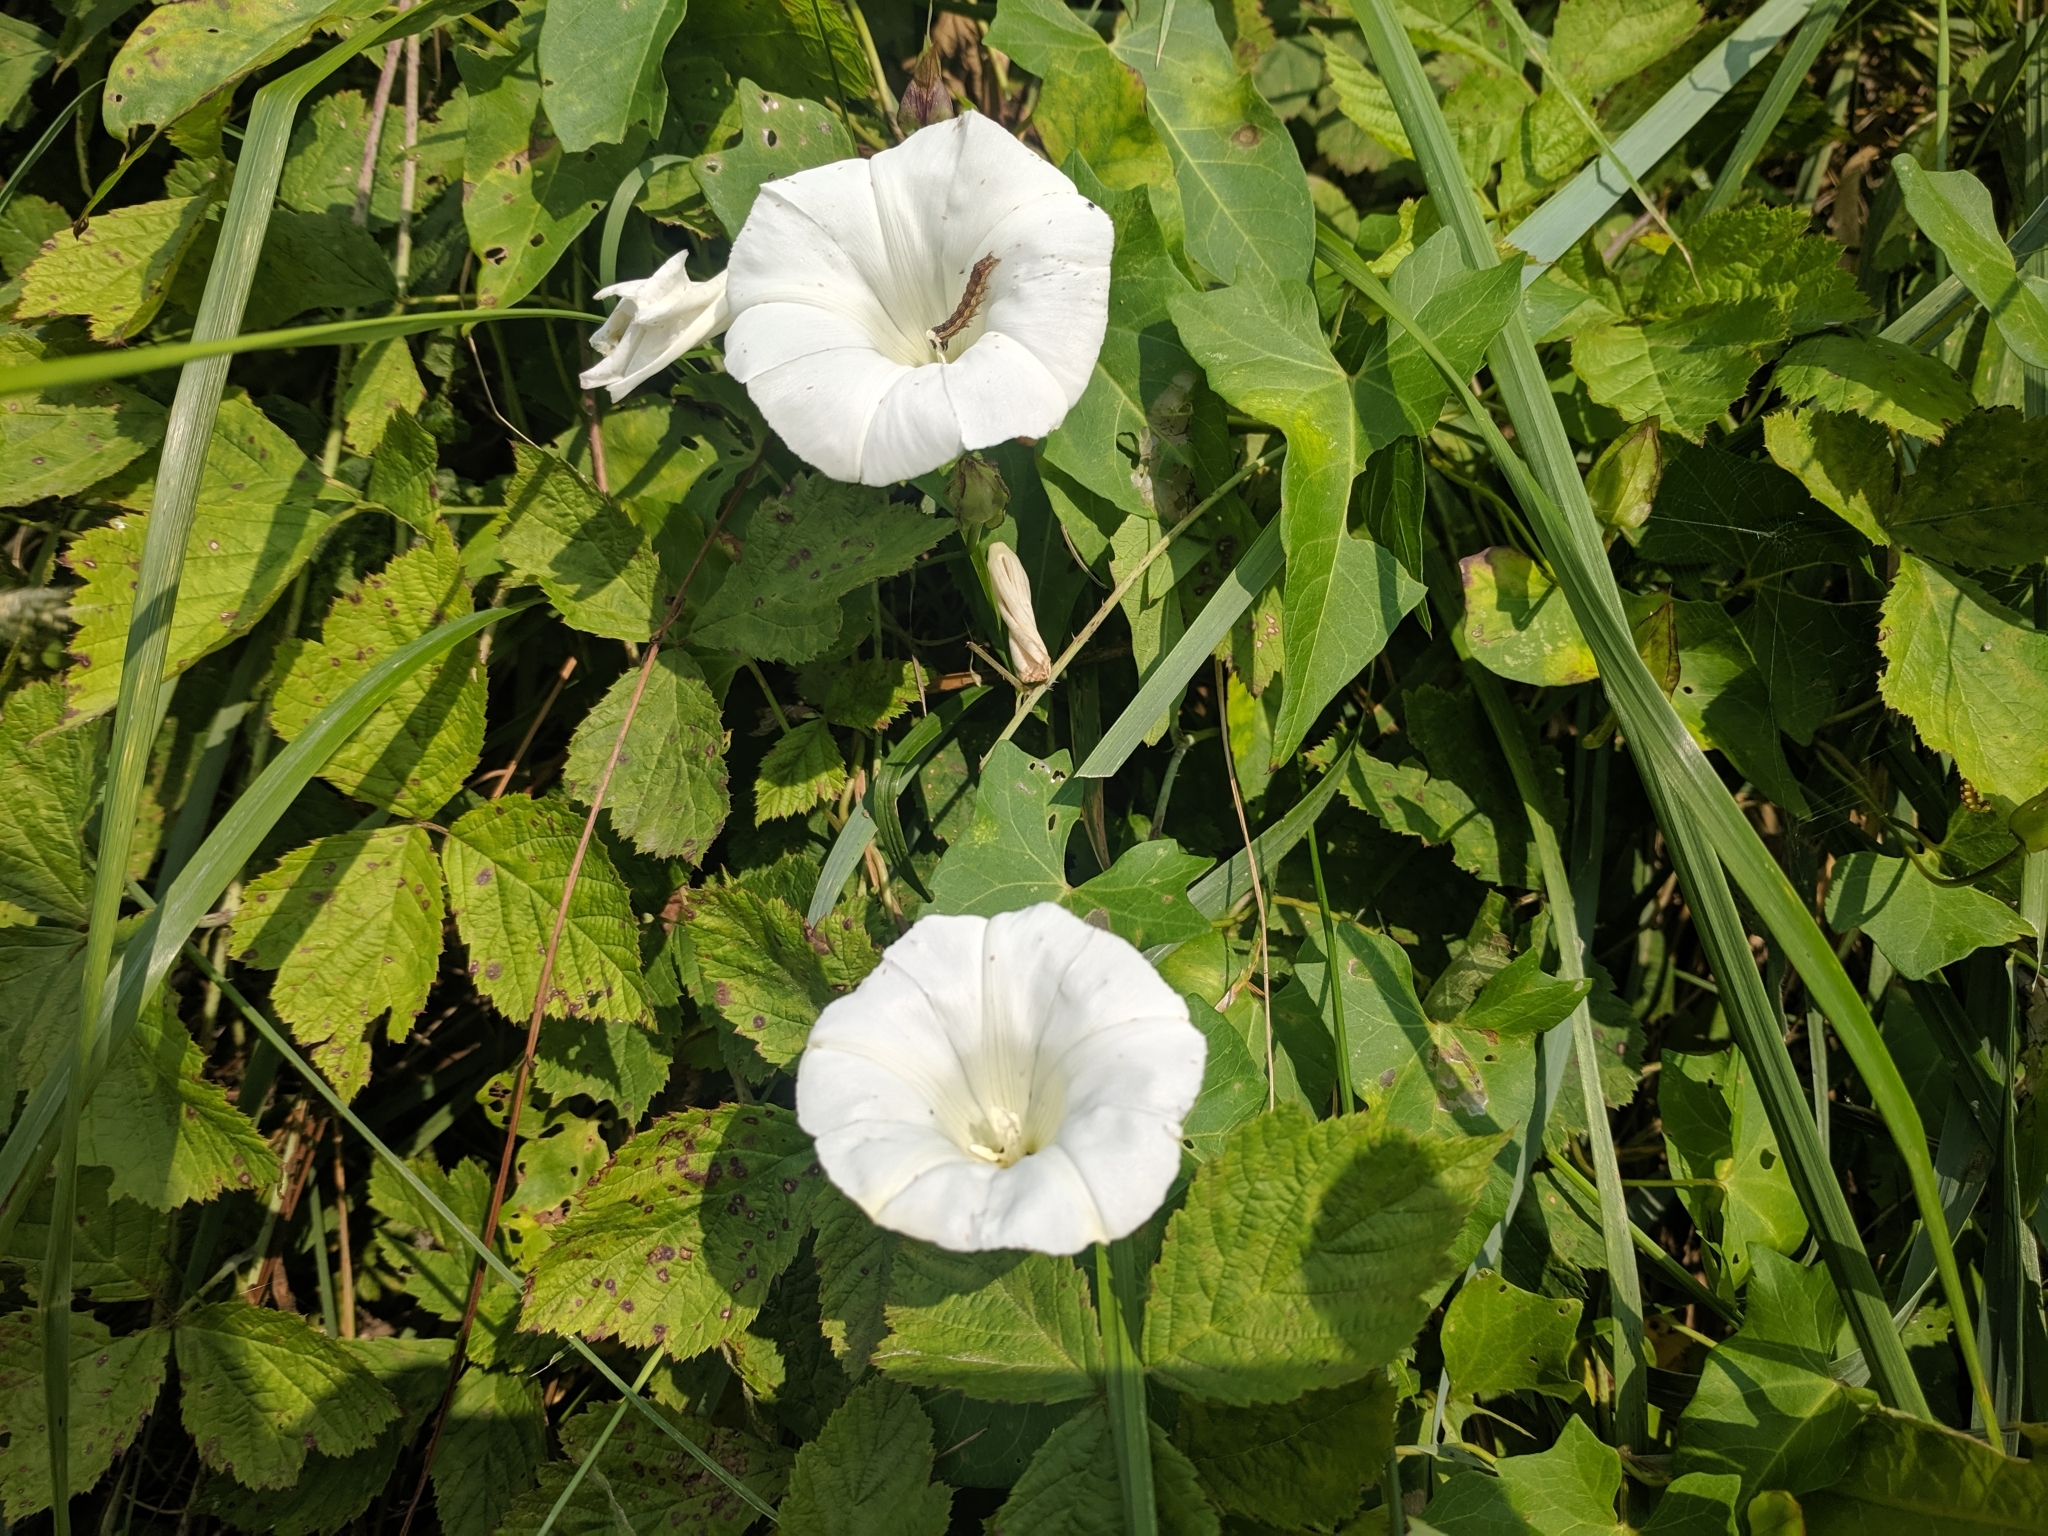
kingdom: Plantae
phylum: Tracheophyta
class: Magnoliopsida
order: Solanales
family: Convolvulaceae
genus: Calystegia
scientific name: Calystegia sepium
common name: Hedge bindweed
